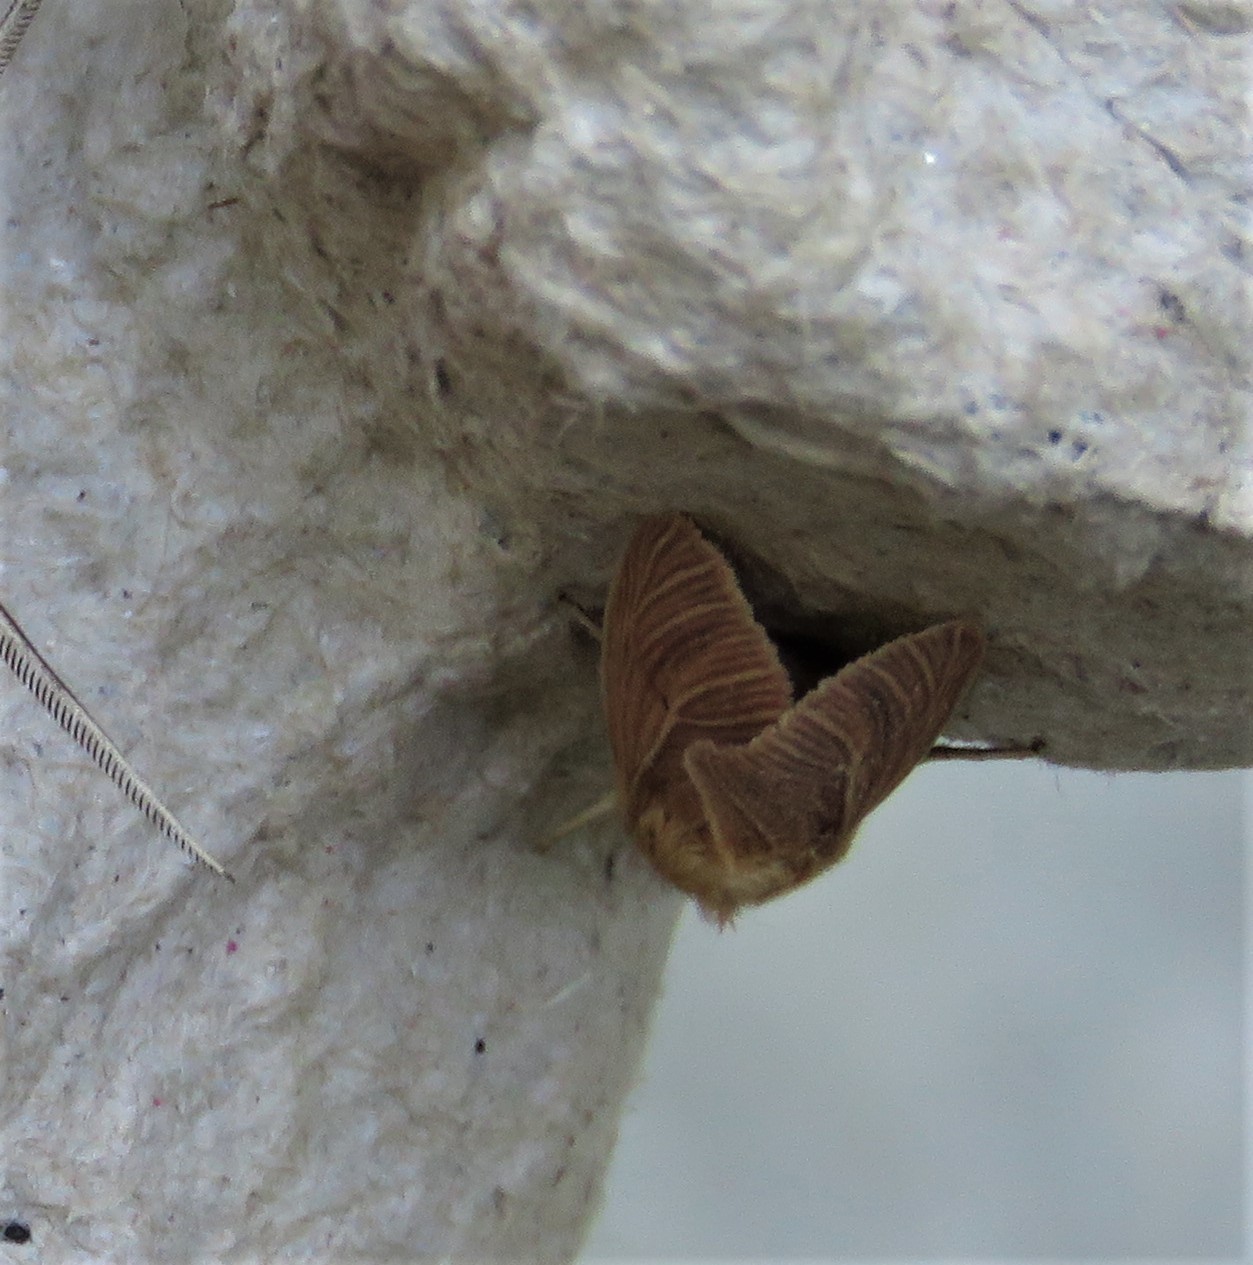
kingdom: Animalia
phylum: Arthropoda
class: Insecta
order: Lepidoptera
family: Noctuidae
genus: Mythimna
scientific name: Mythimna pallens
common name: Common wainscot
